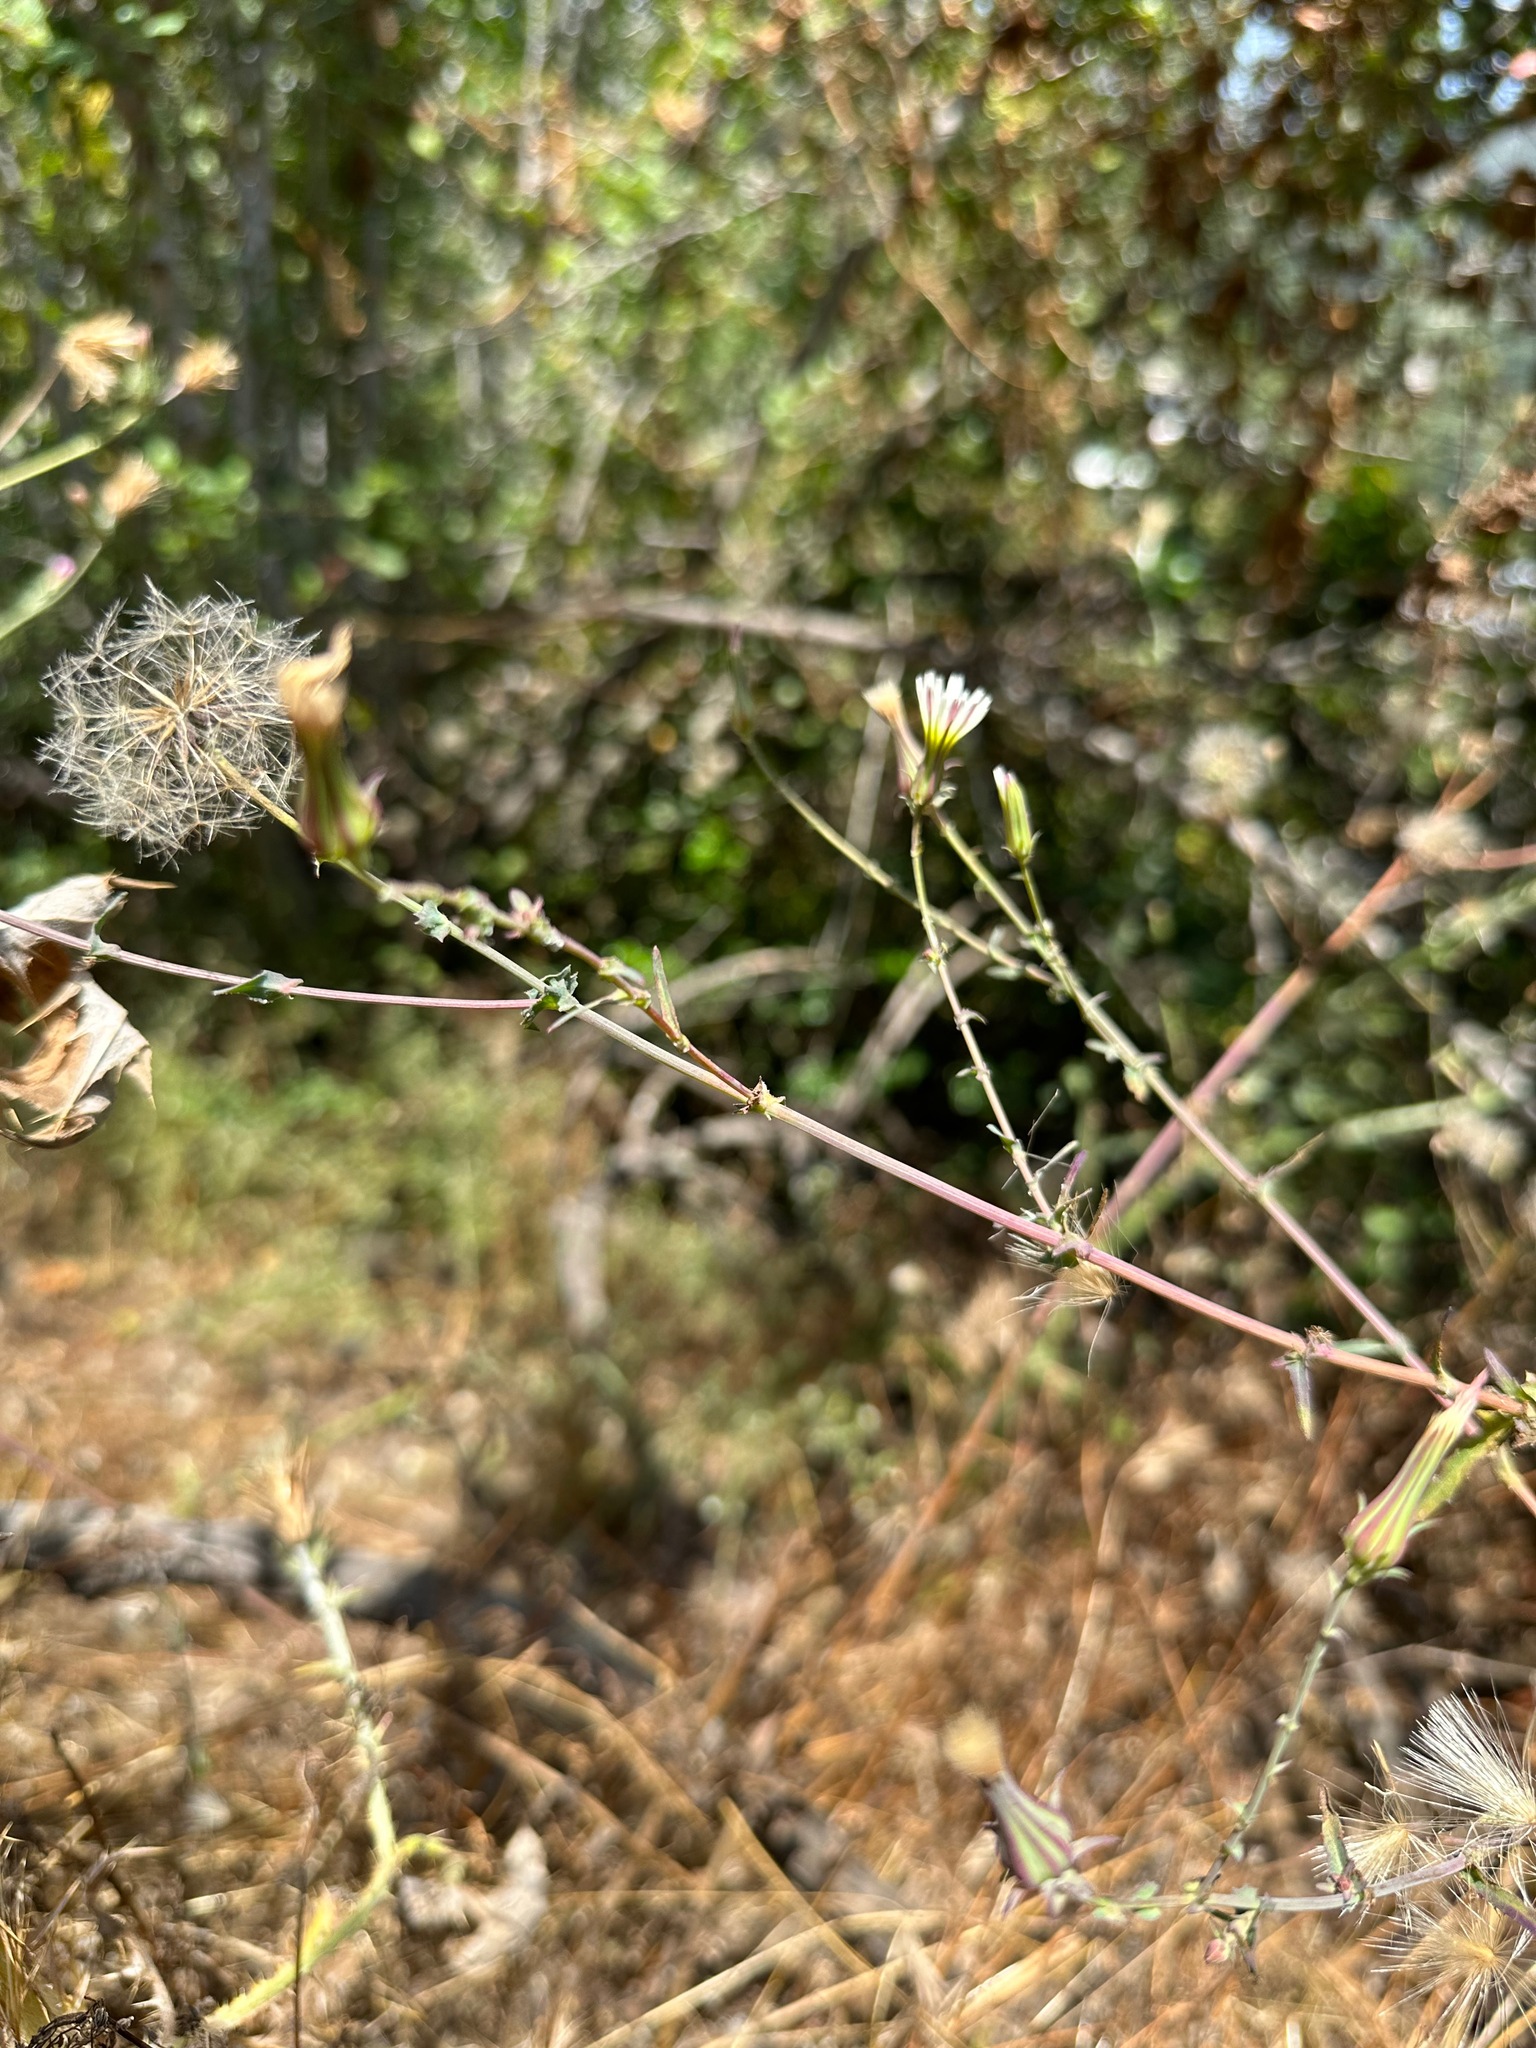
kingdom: Plantae
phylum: Tracheophyta
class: Magnoliopsida
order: Asterales
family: Asteraceae
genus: Rafinesquia
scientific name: Rafinesquia californica
